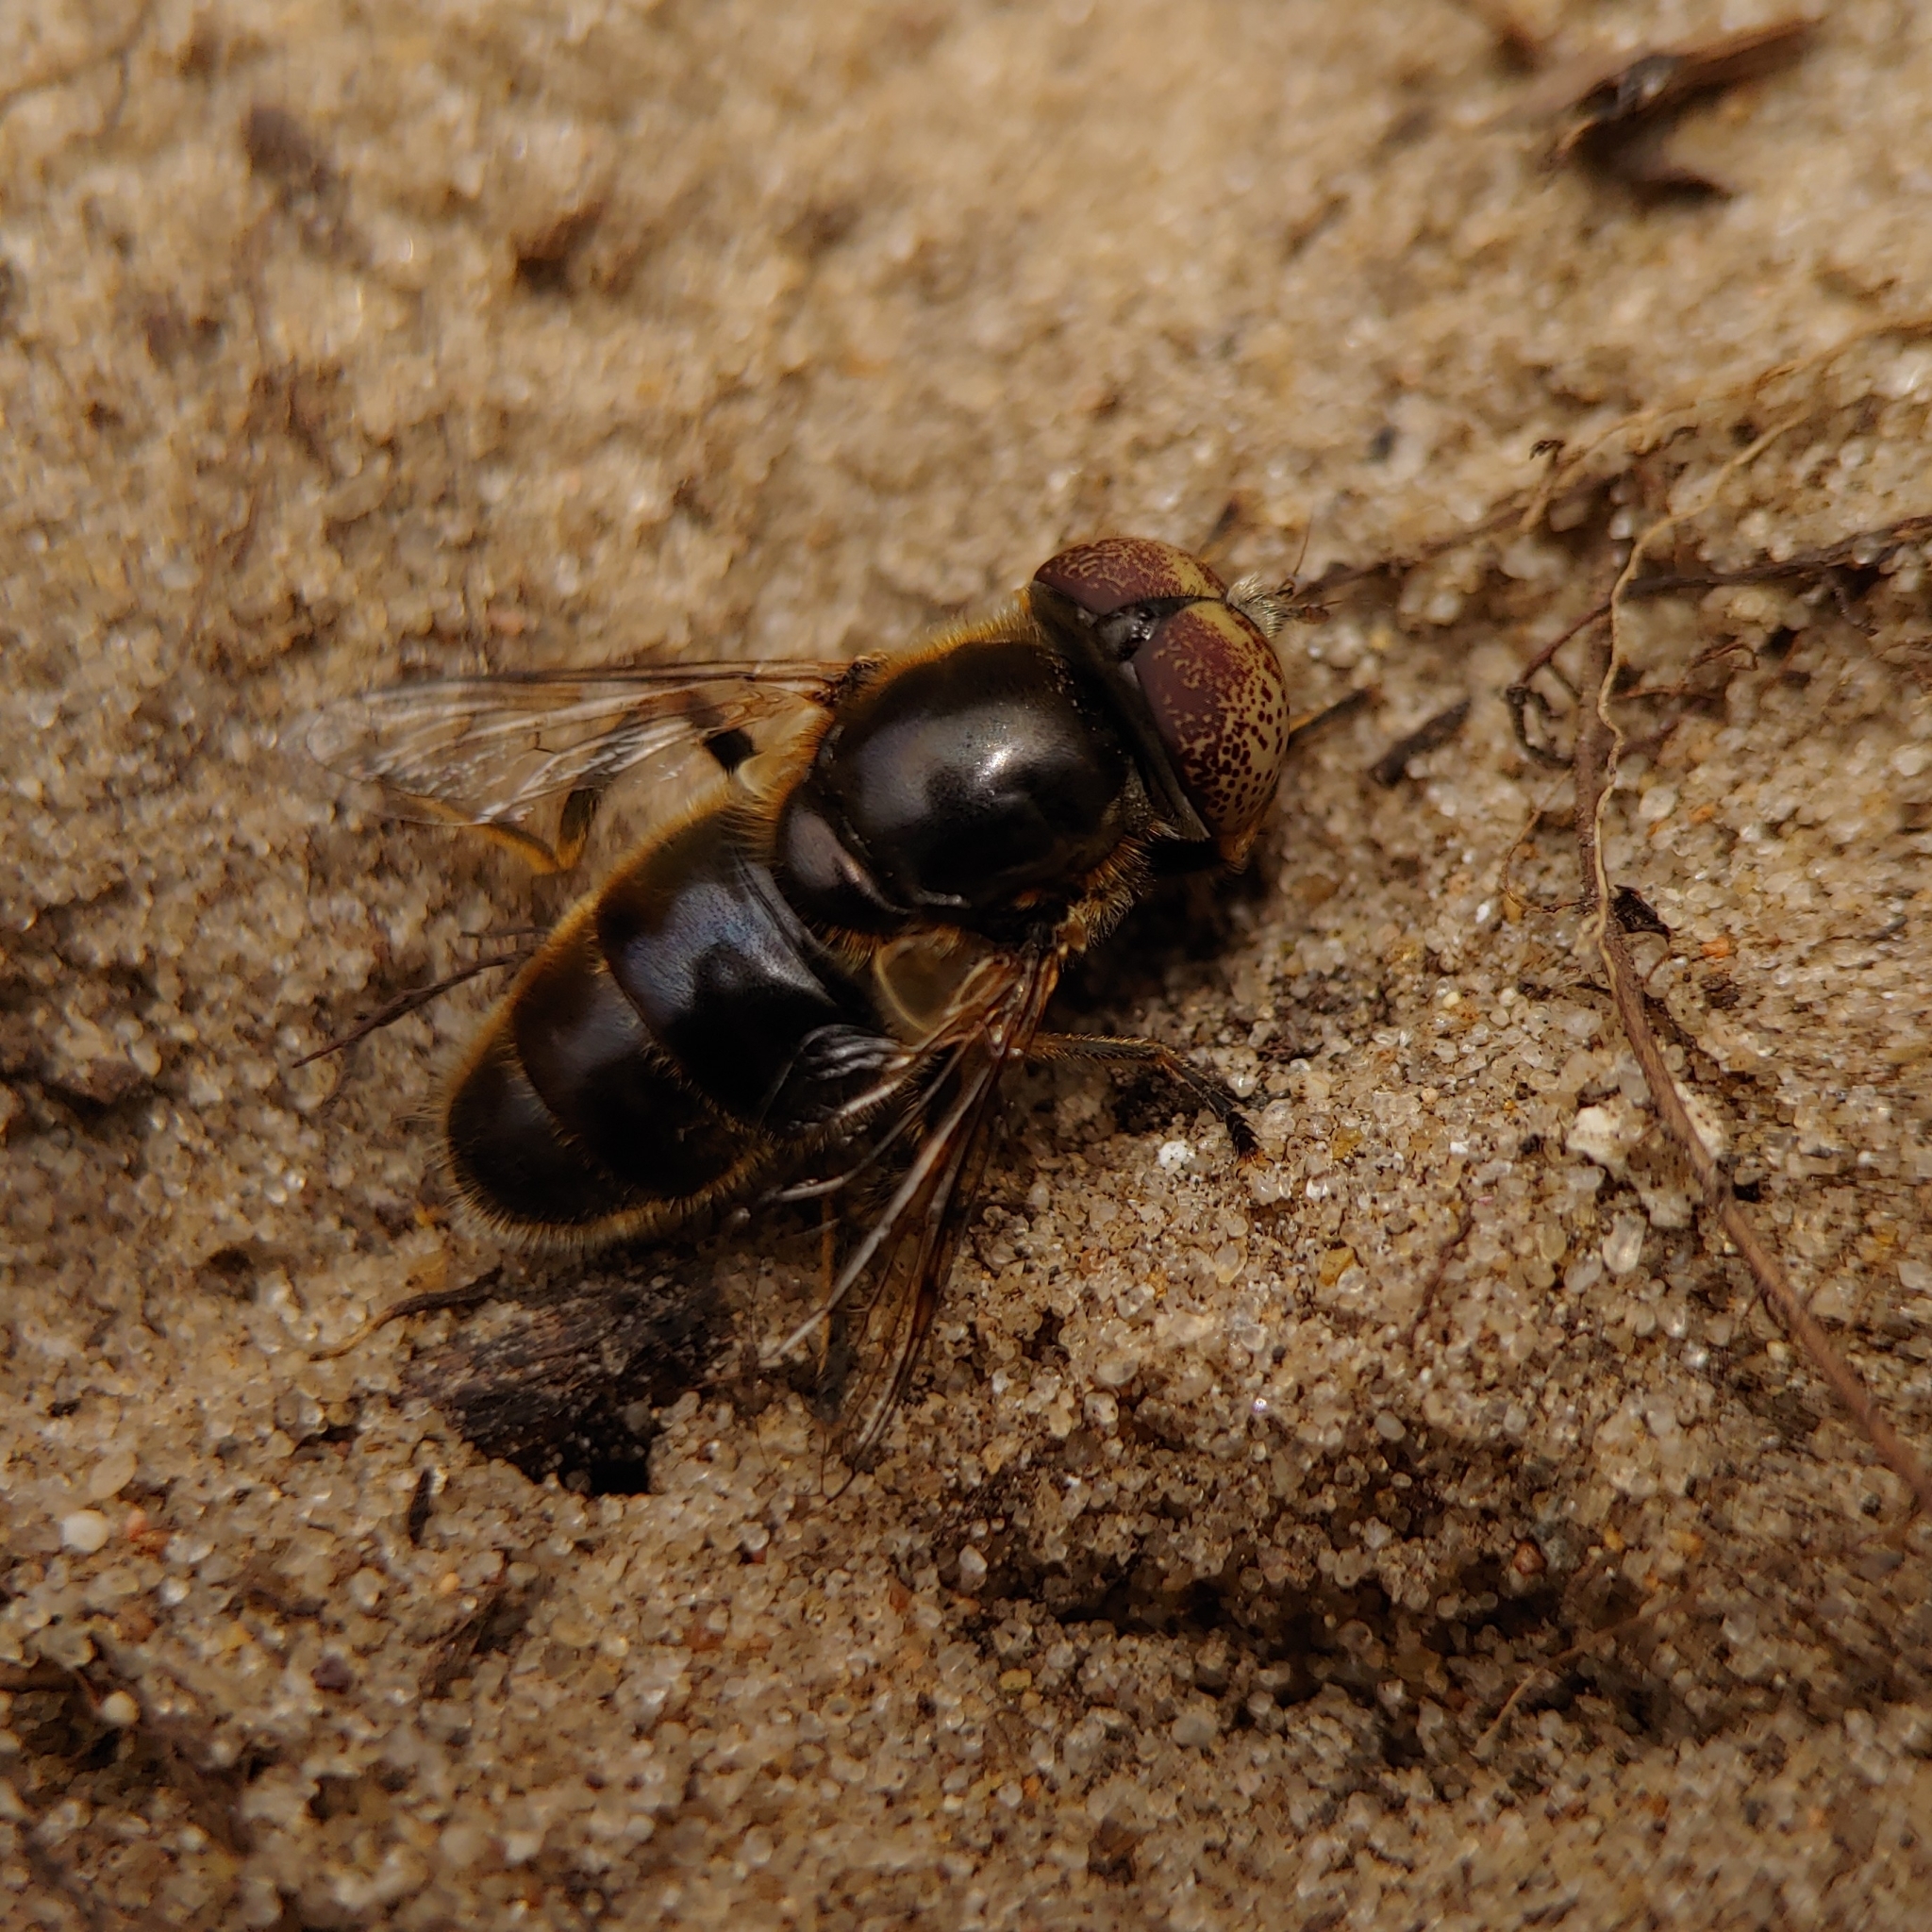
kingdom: Animalia
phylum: Arthropoda
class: Insecta
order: Diptera
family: Syrphidae
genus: Eristalinus
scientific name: Eristalinus aeneus
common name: Syrphid fly
